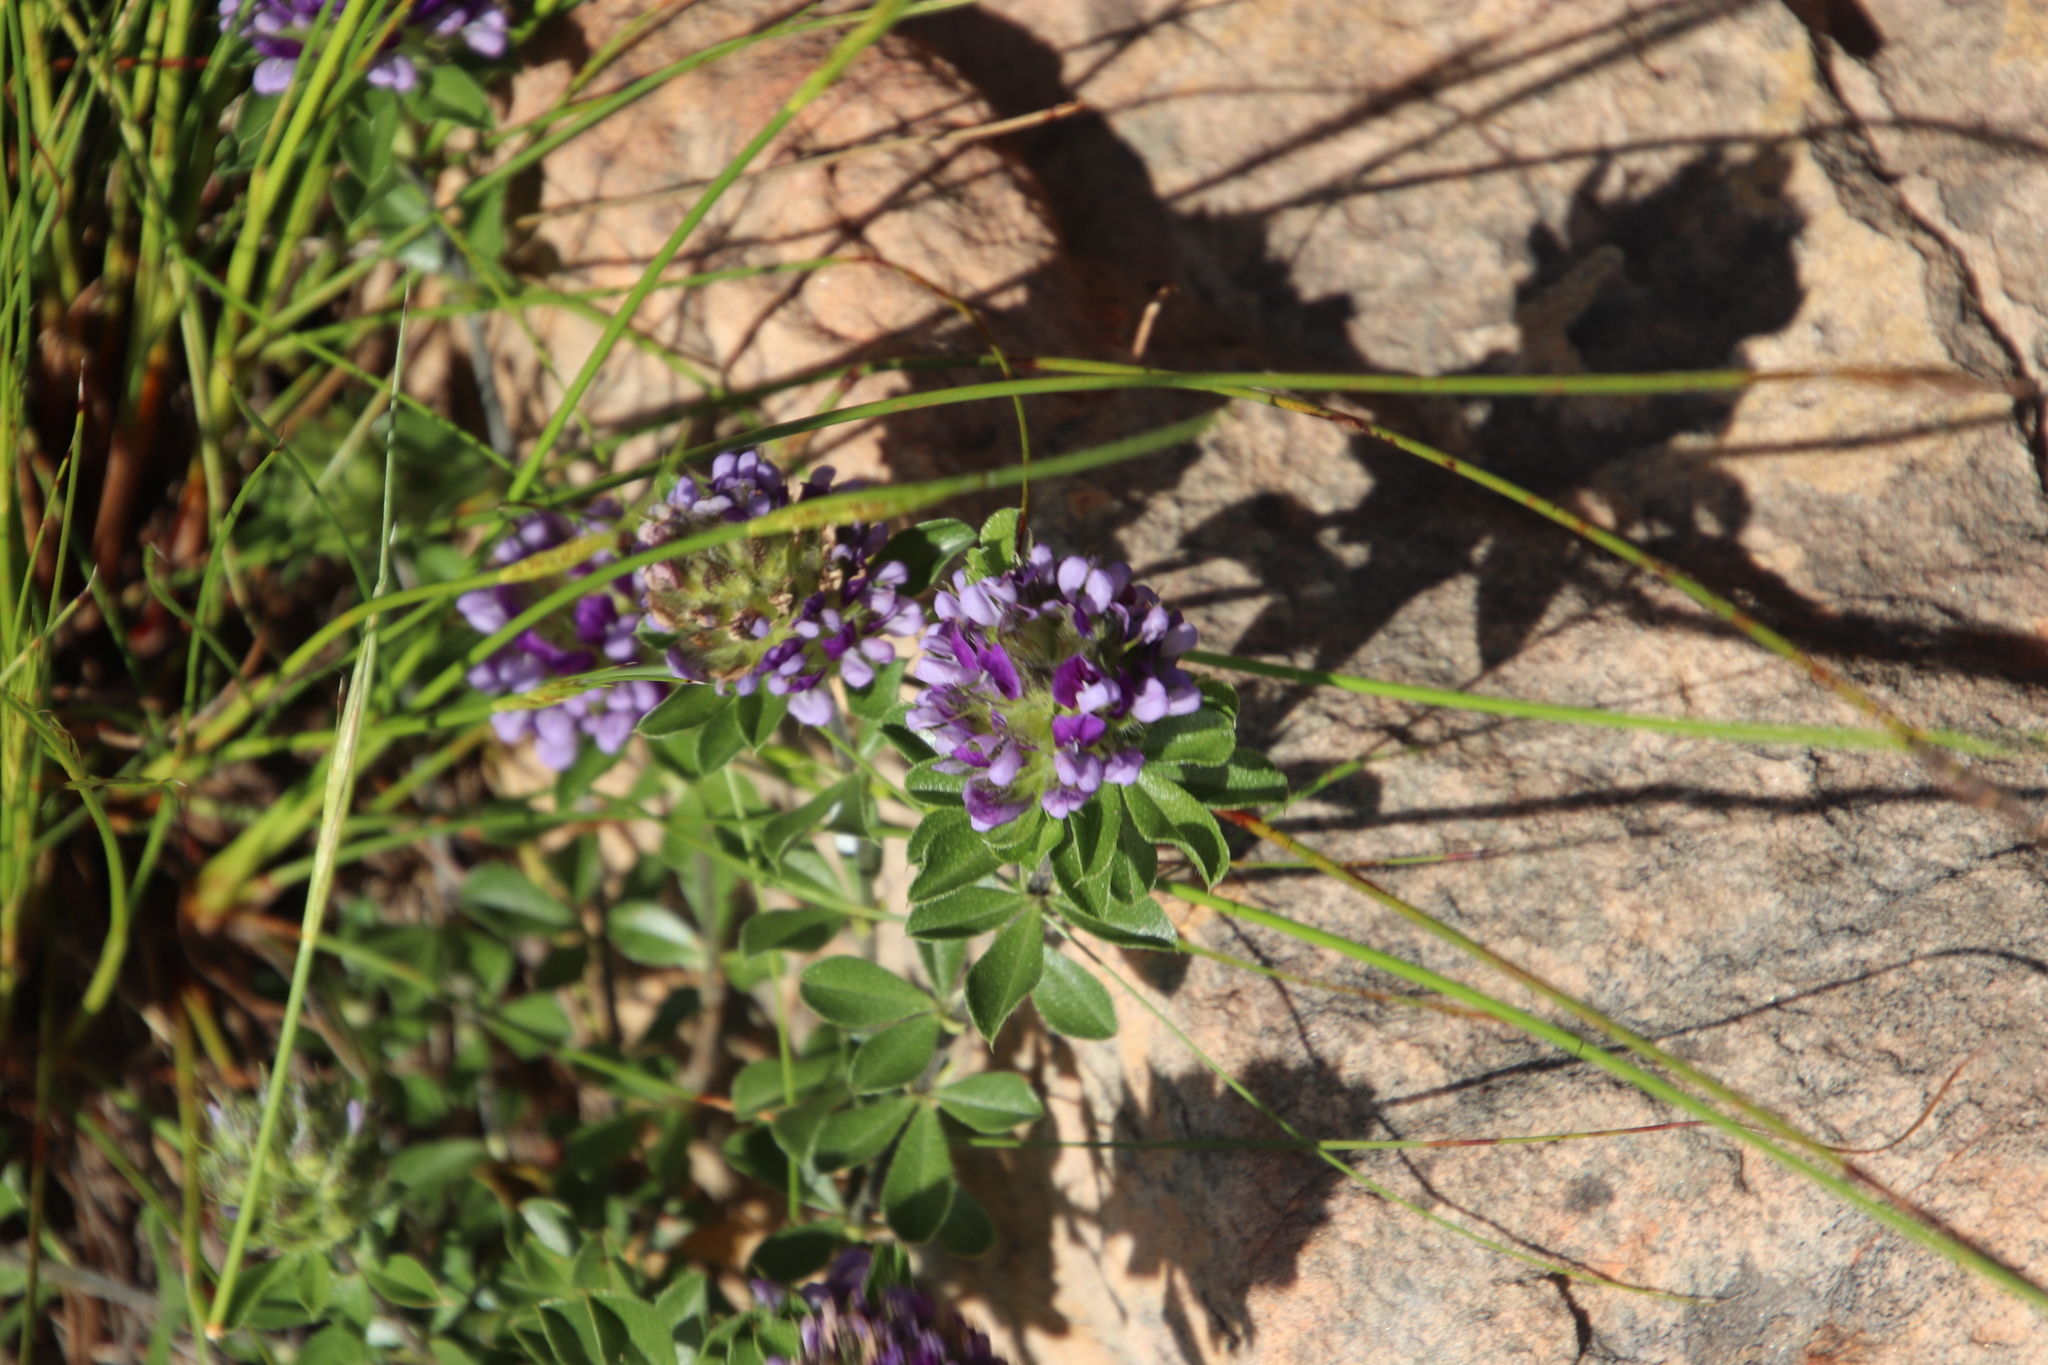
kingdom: Plantae
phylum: Tracheophyta
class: Magnoliopsida
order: Fabales
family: Fabaceae
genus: Psoralea
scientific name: Psoralea fruticans
